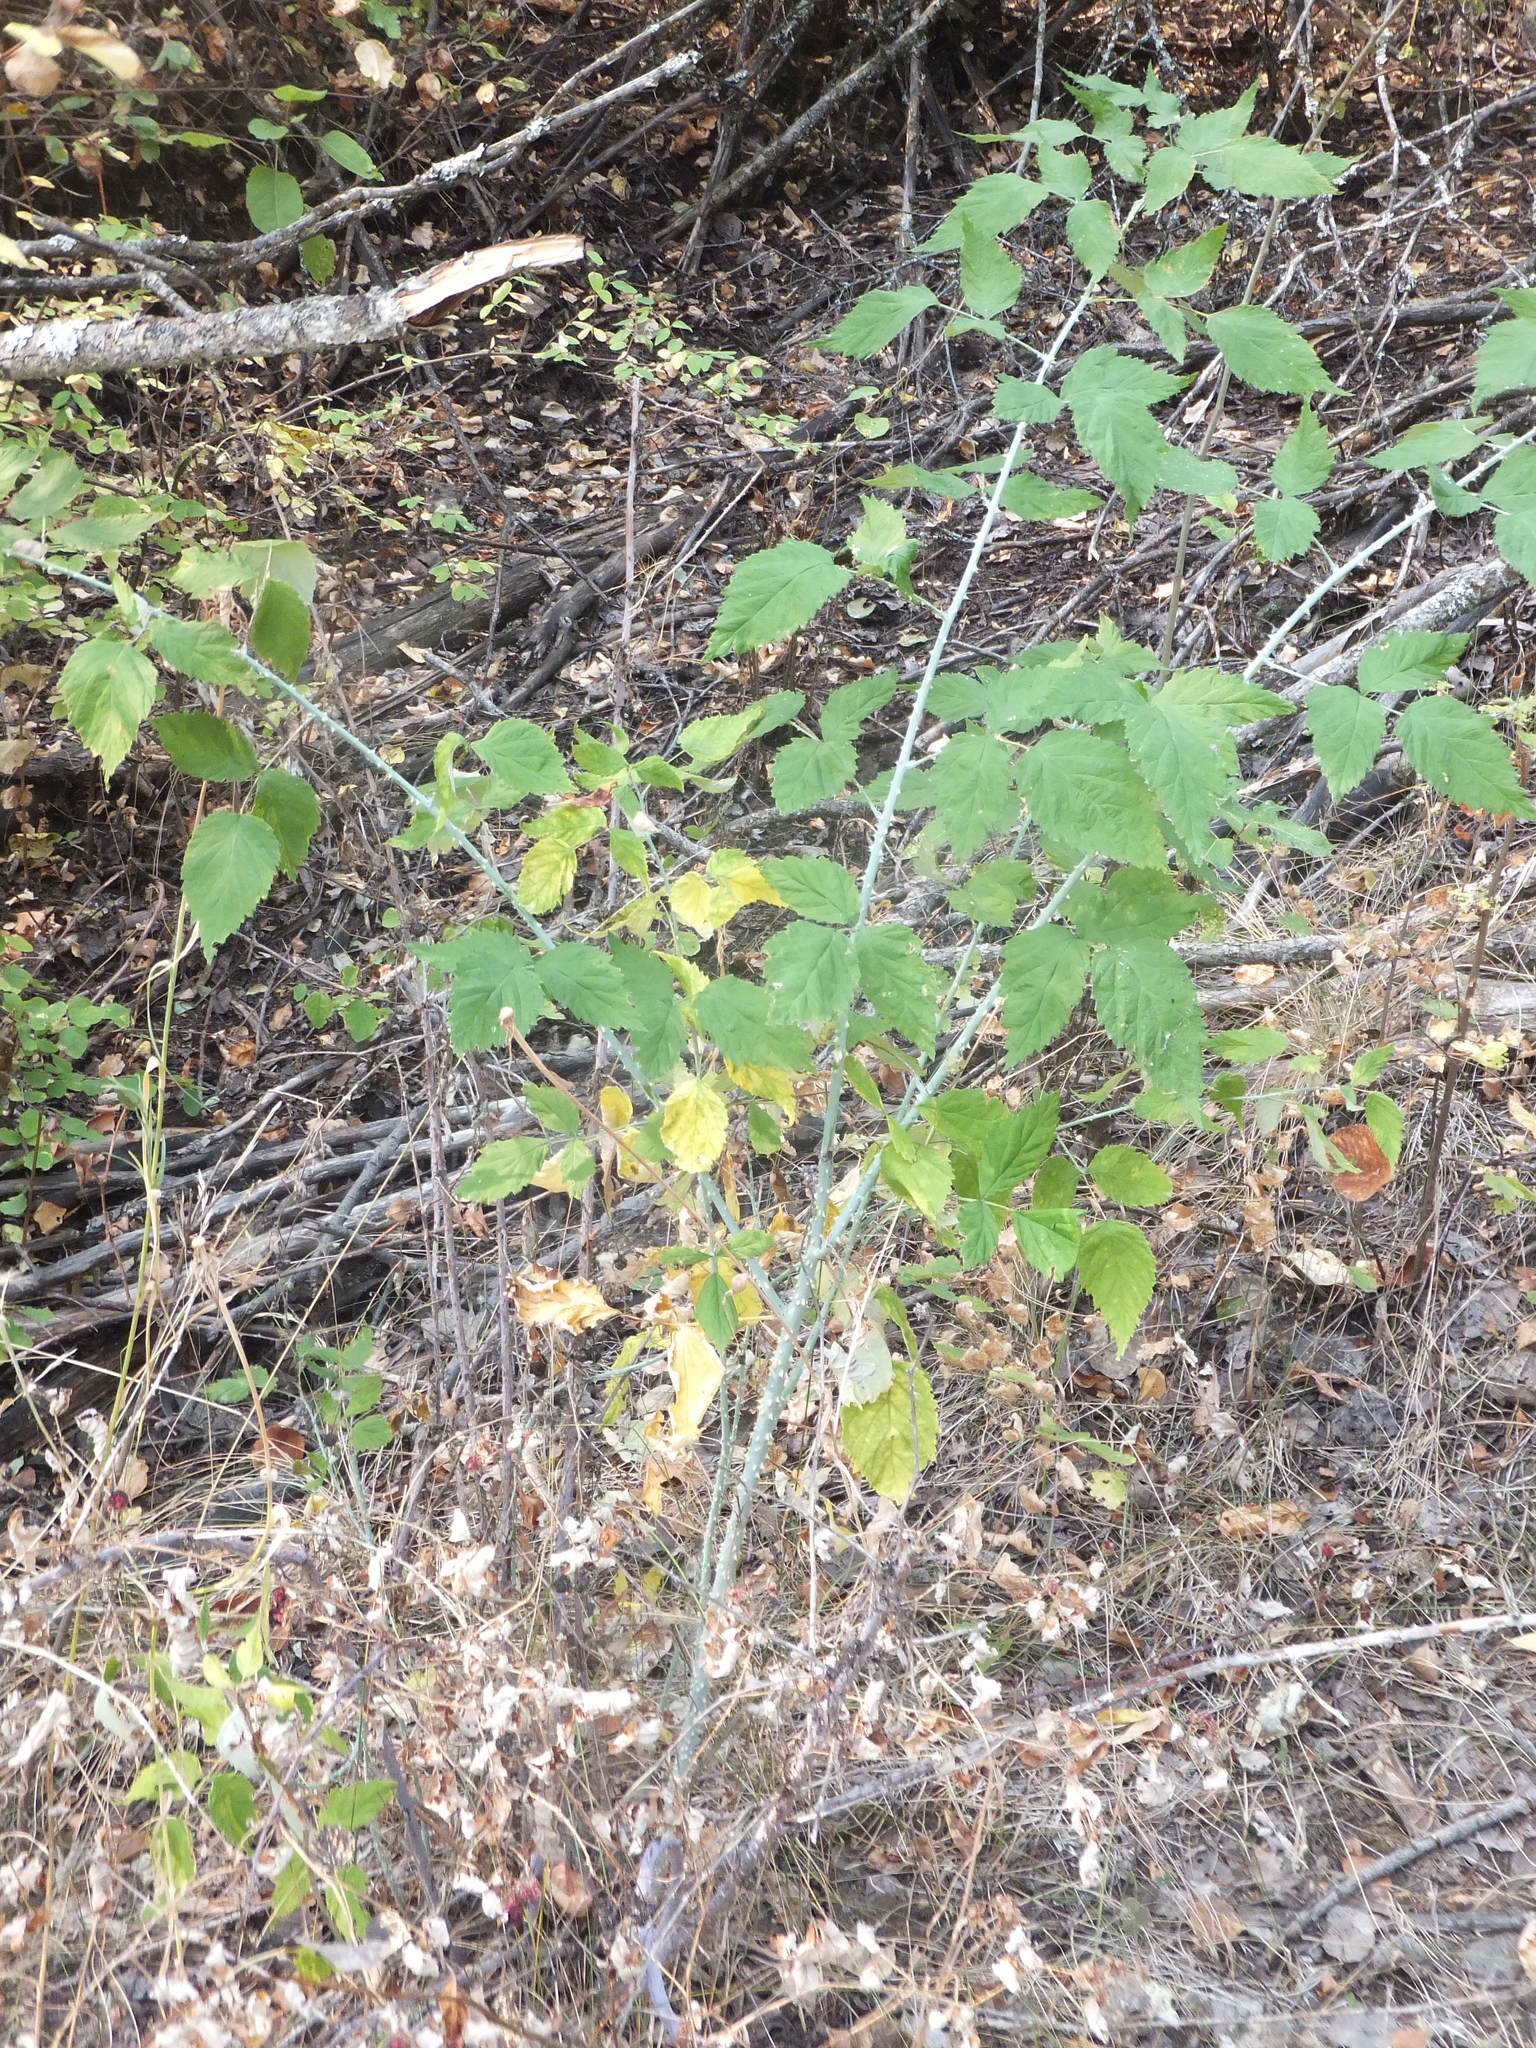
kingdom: Plantae
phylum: Tracheophyta
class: Magnoliopsida
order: Rosales
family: Rosaceae
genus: Rubus
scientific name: Rubus leucodermis
